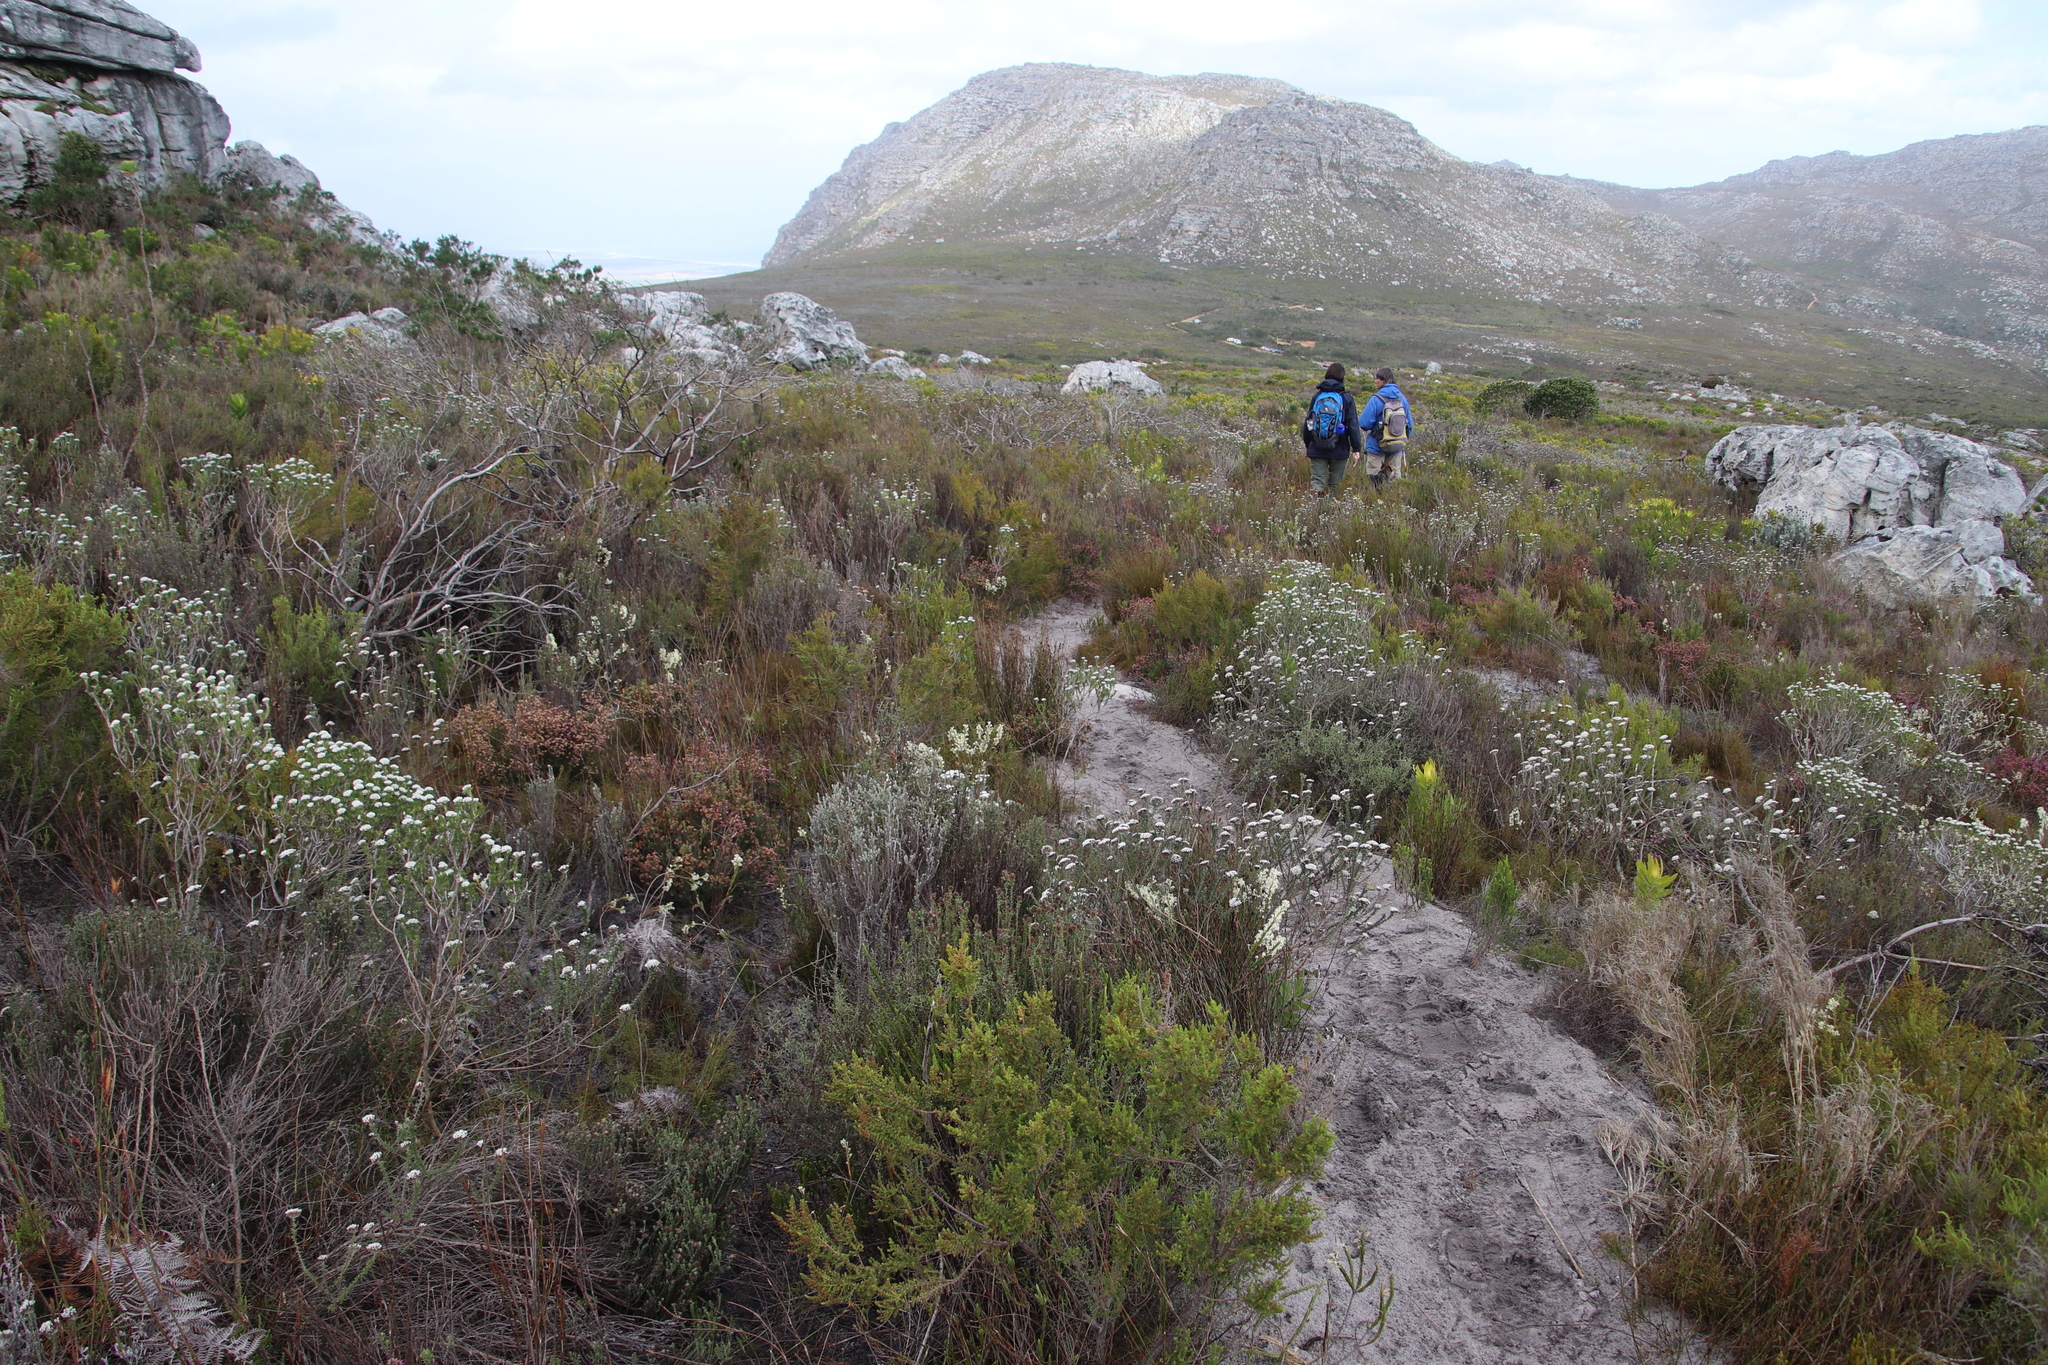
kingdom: Plantae
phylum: Tracheophyta
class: Magnoliopsida
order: Asterales
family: Asteraceae
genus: Metalasia
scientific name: Metalasia compacta
